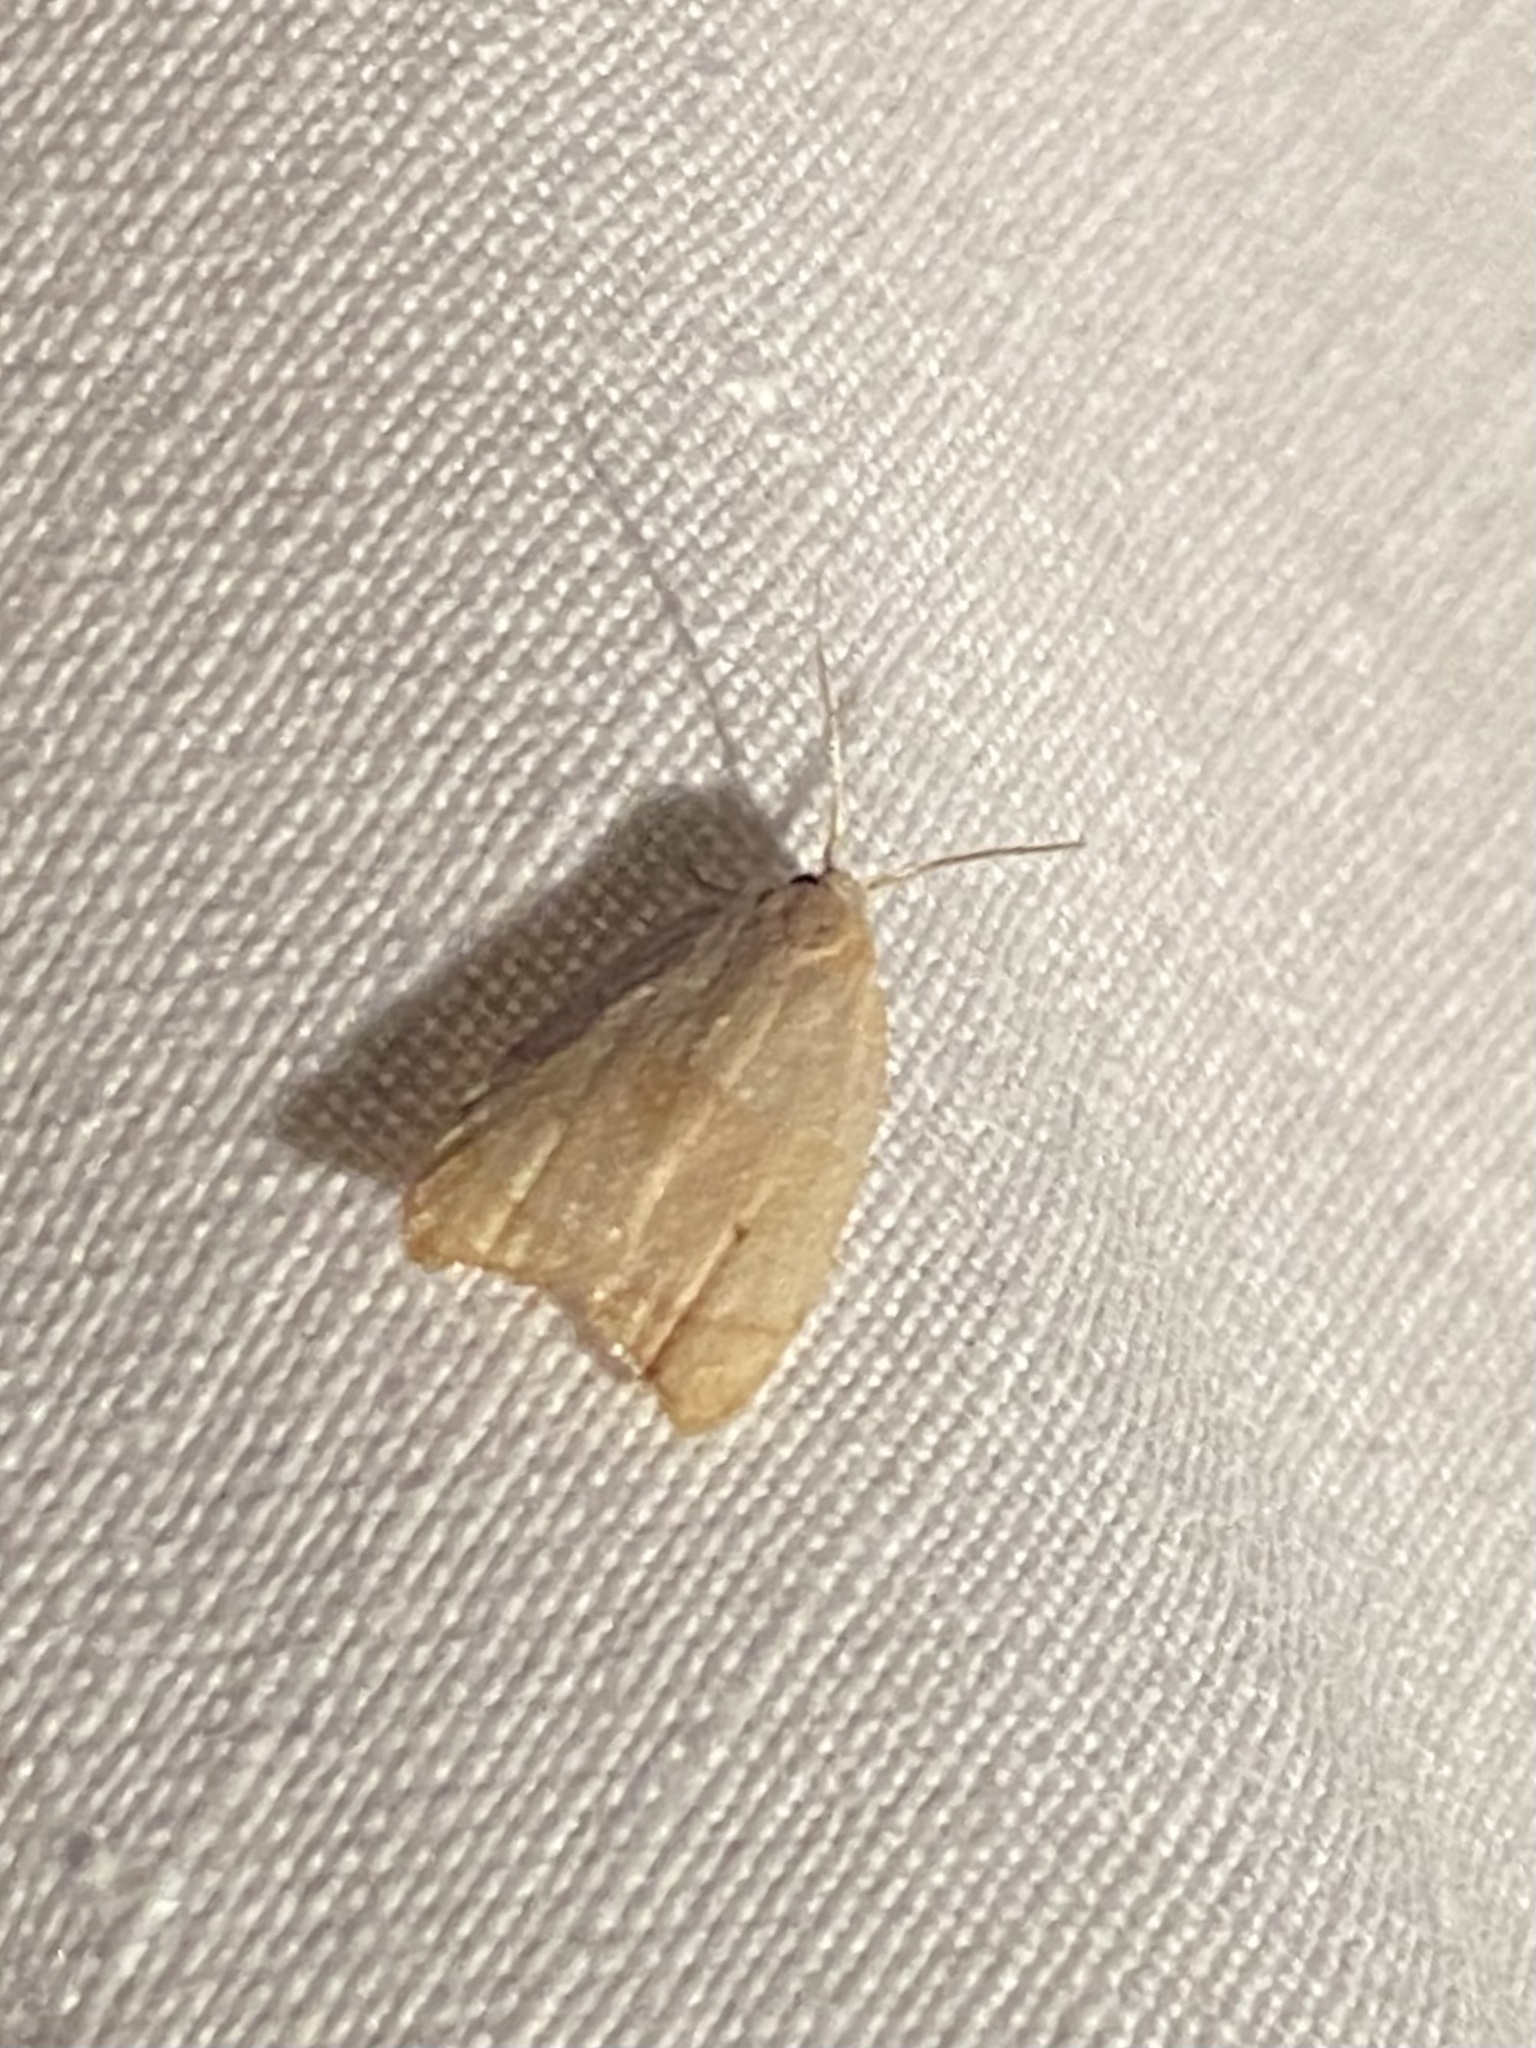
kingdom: Animalia
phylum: Arthropoda
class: Insecta
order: Lepidoptera
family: Tortricidae
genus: Coelostathma
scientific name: Coelostathma discopunctana
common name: Batman moth
